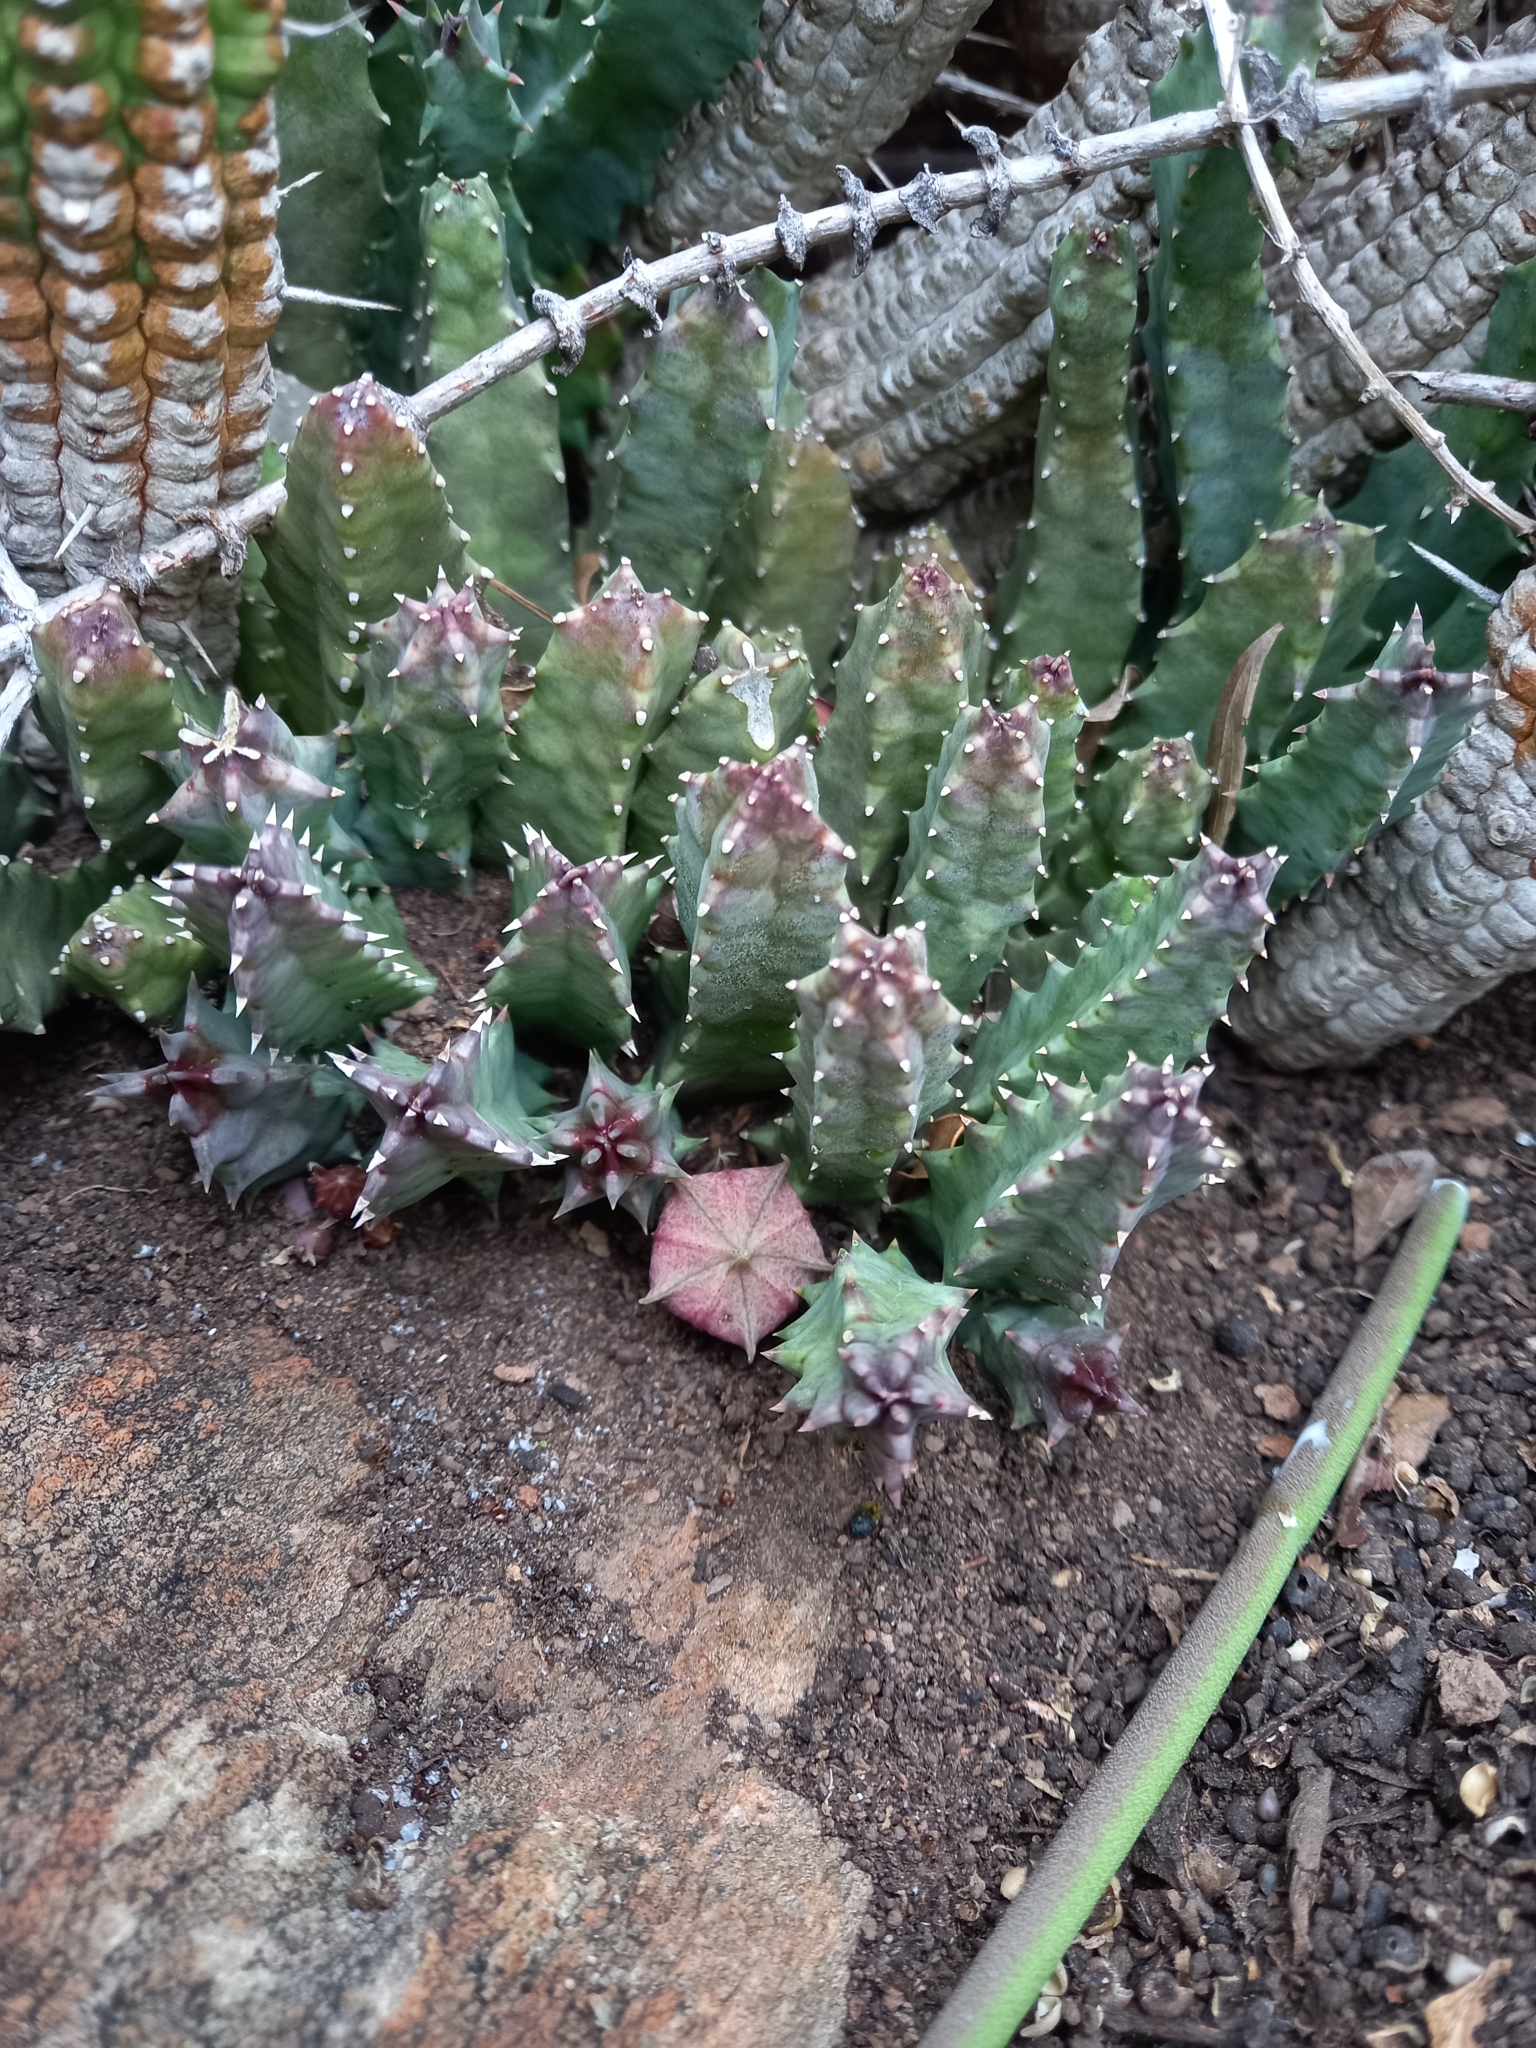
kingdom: Plantae
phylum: Tracheophyta
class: Magnoliopsida
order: Gentianales
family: Apocynaceae
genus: Ceropegia
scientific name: Ceropegia clavigera
